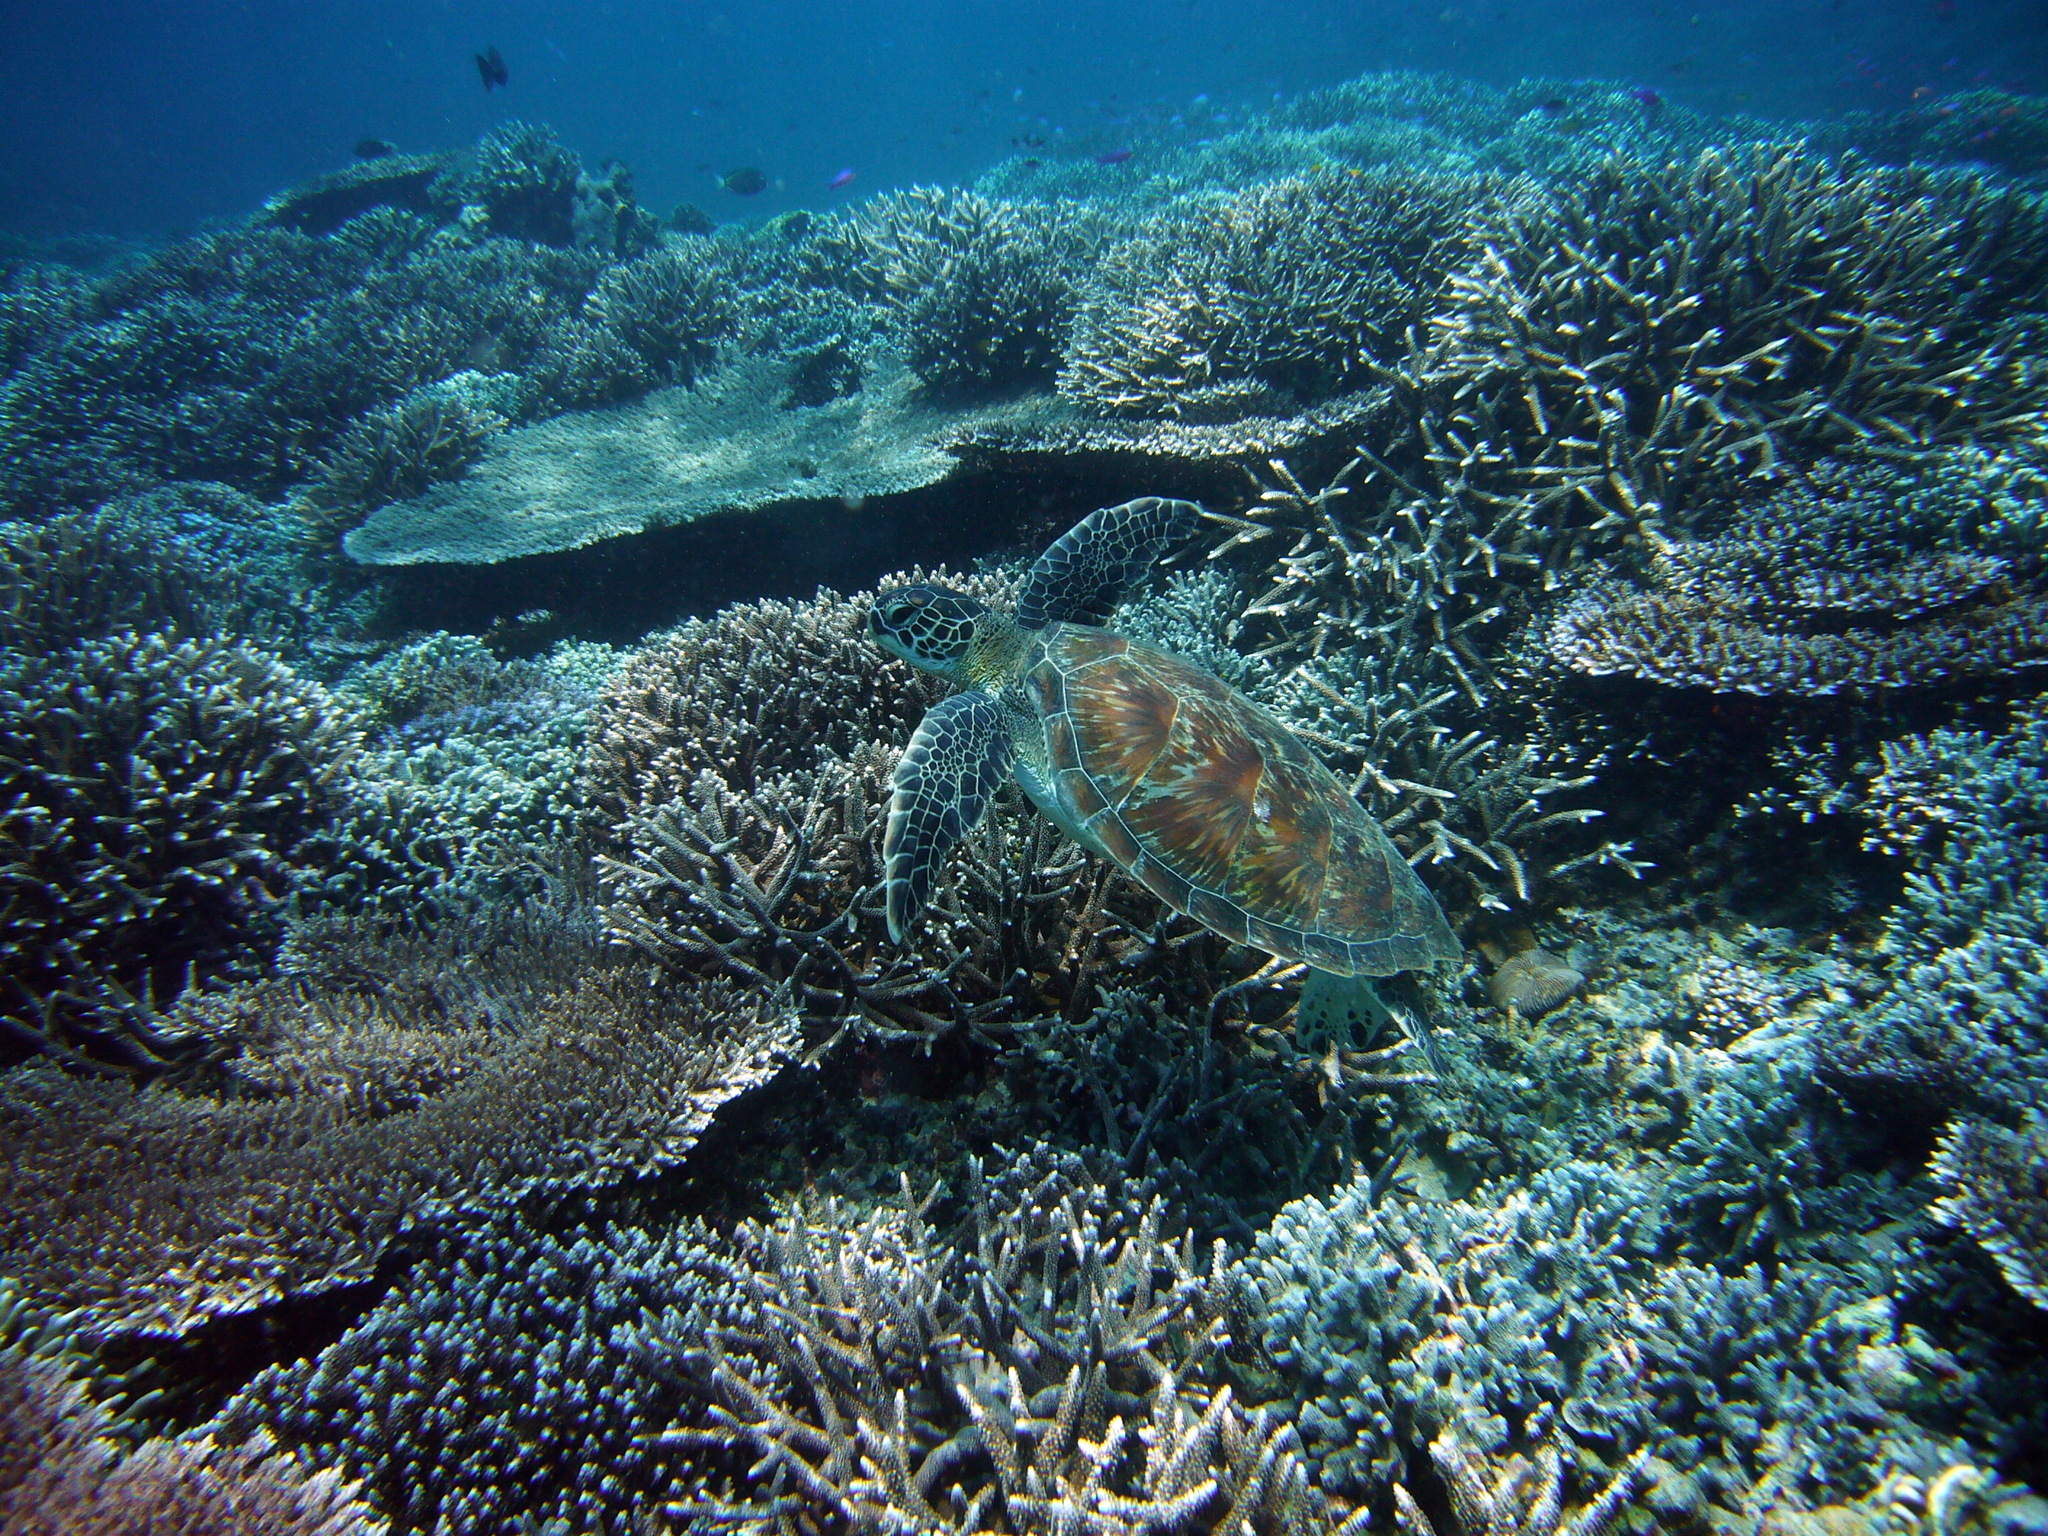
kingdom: Animalia
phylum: Chordata
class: Testudines
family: Cheloniidae
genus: Chelonia
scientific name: Chelonia mydas
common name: Green turtle
